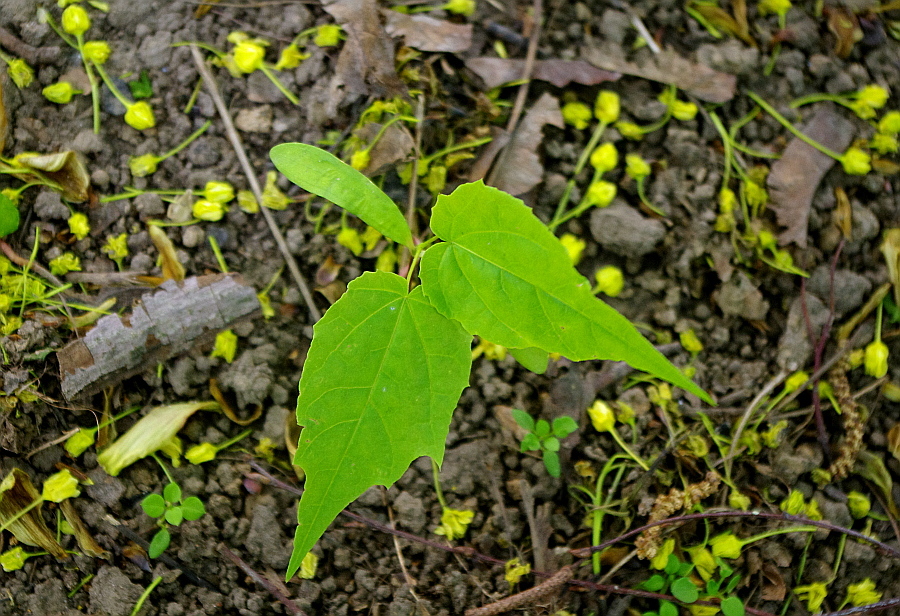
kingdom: Plantae
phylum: Tracheophyta
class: Magnoliopsida
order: Sapindales
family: Sapindaceae
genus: Acer
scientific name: Acer platanoides
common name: Norway maple
